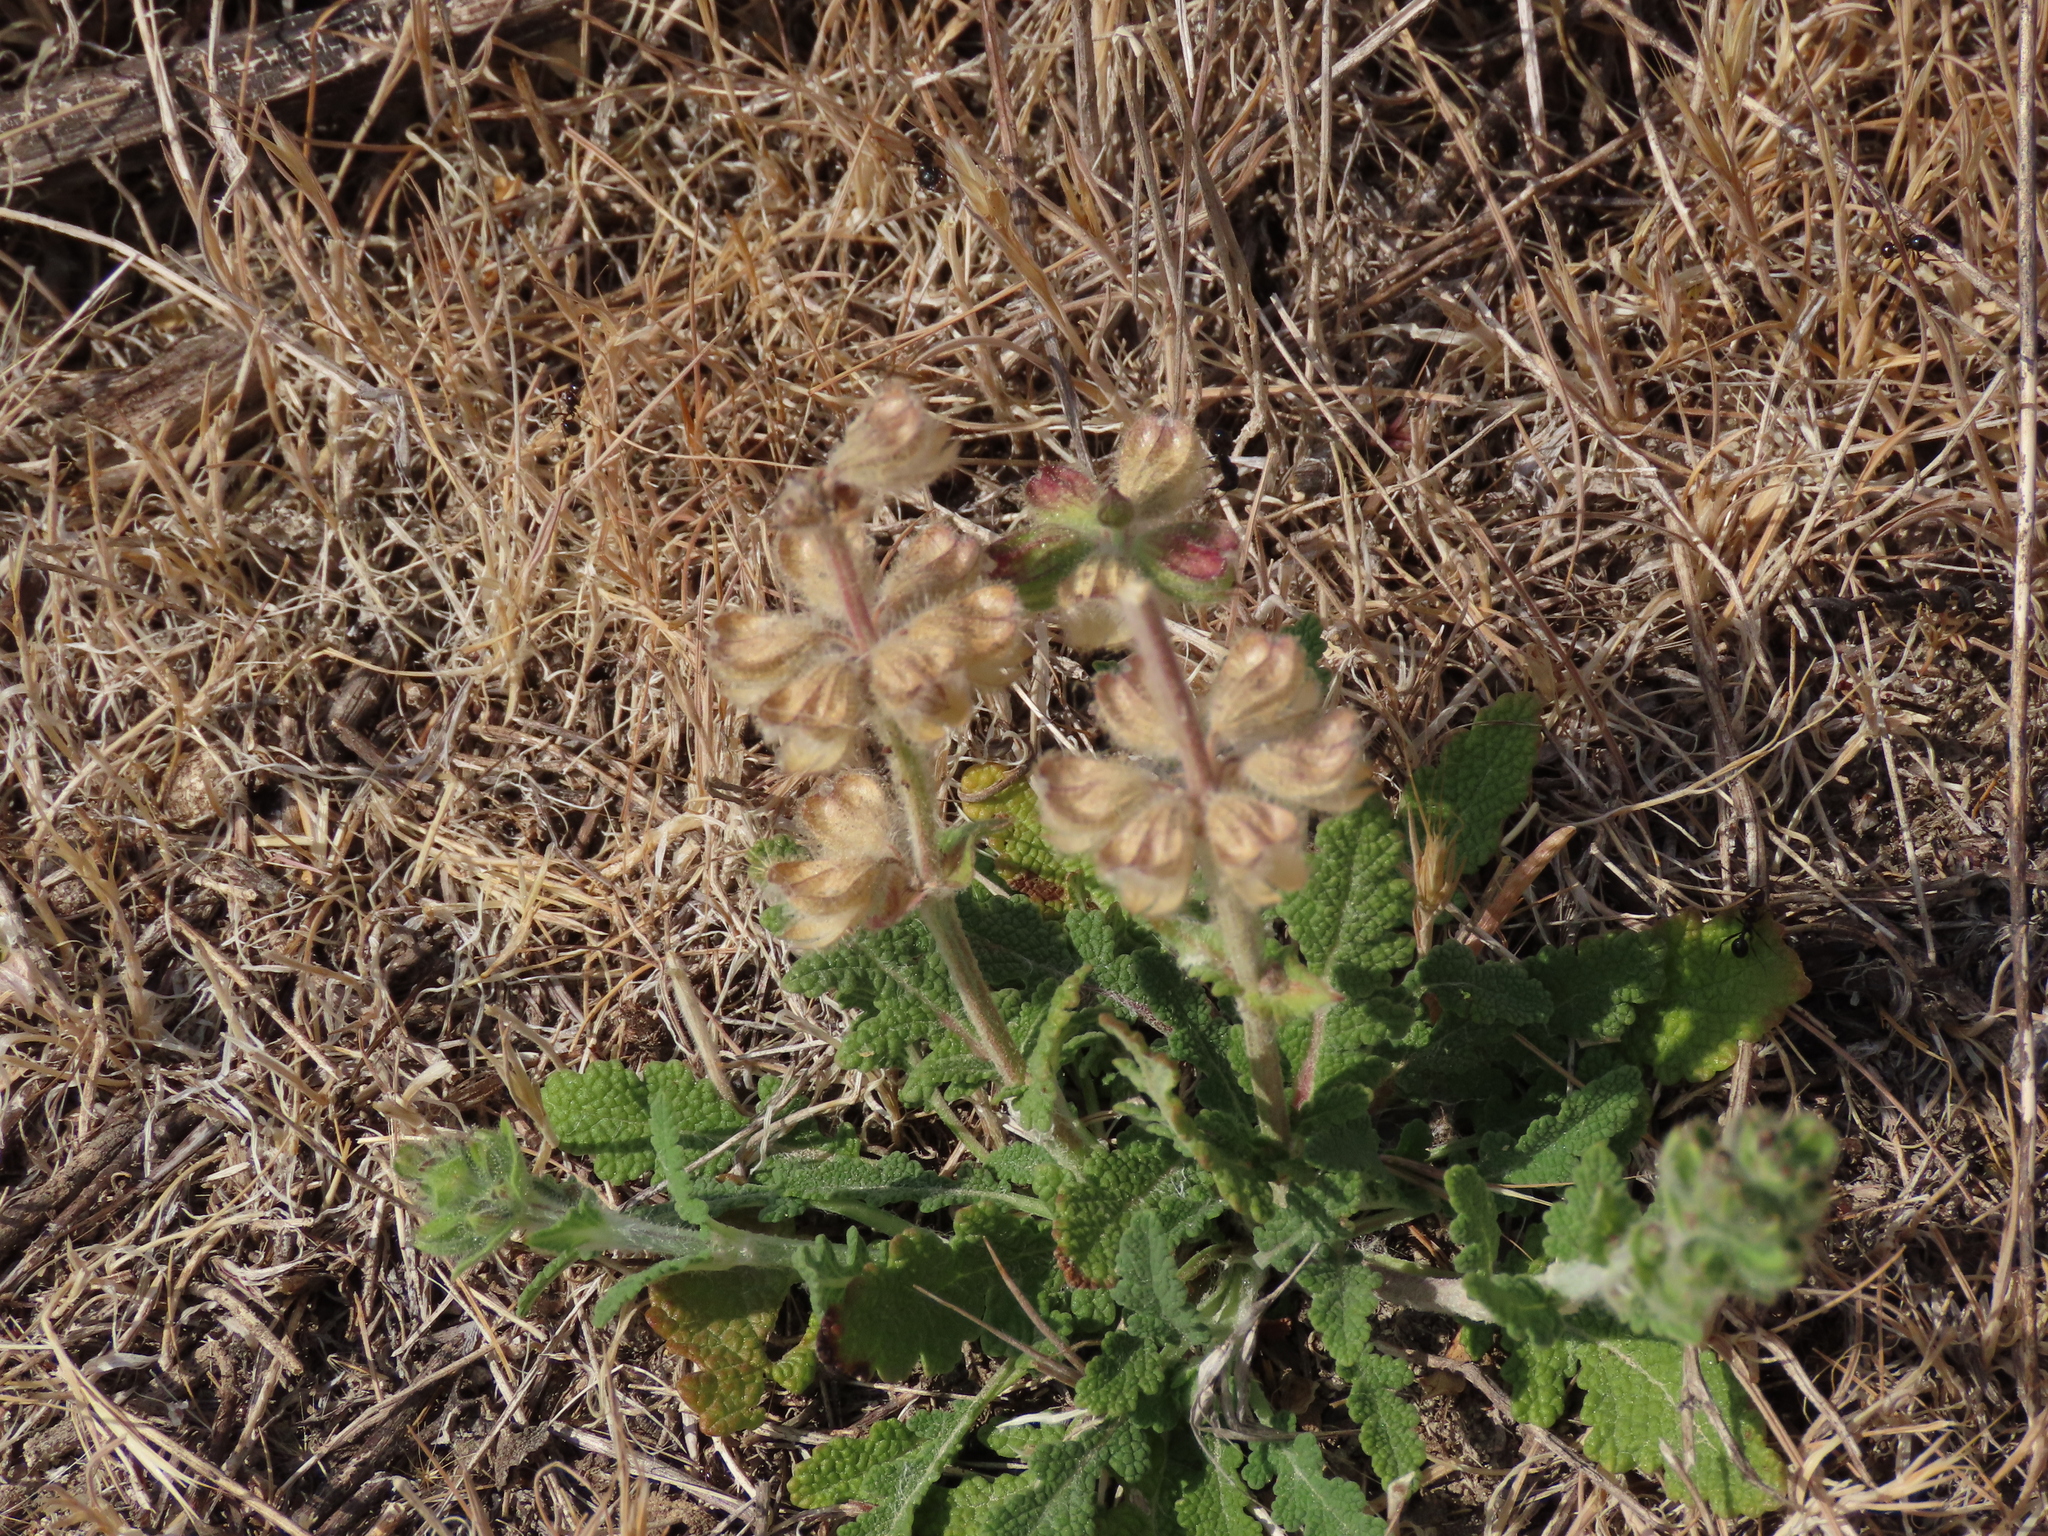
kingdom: Plantae
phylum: Tracheophyta
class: Magnoliopsida
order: Lamiales
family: Lamiaceae
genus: Salvia
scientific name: Salvia verbenaca
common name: Wild clary
